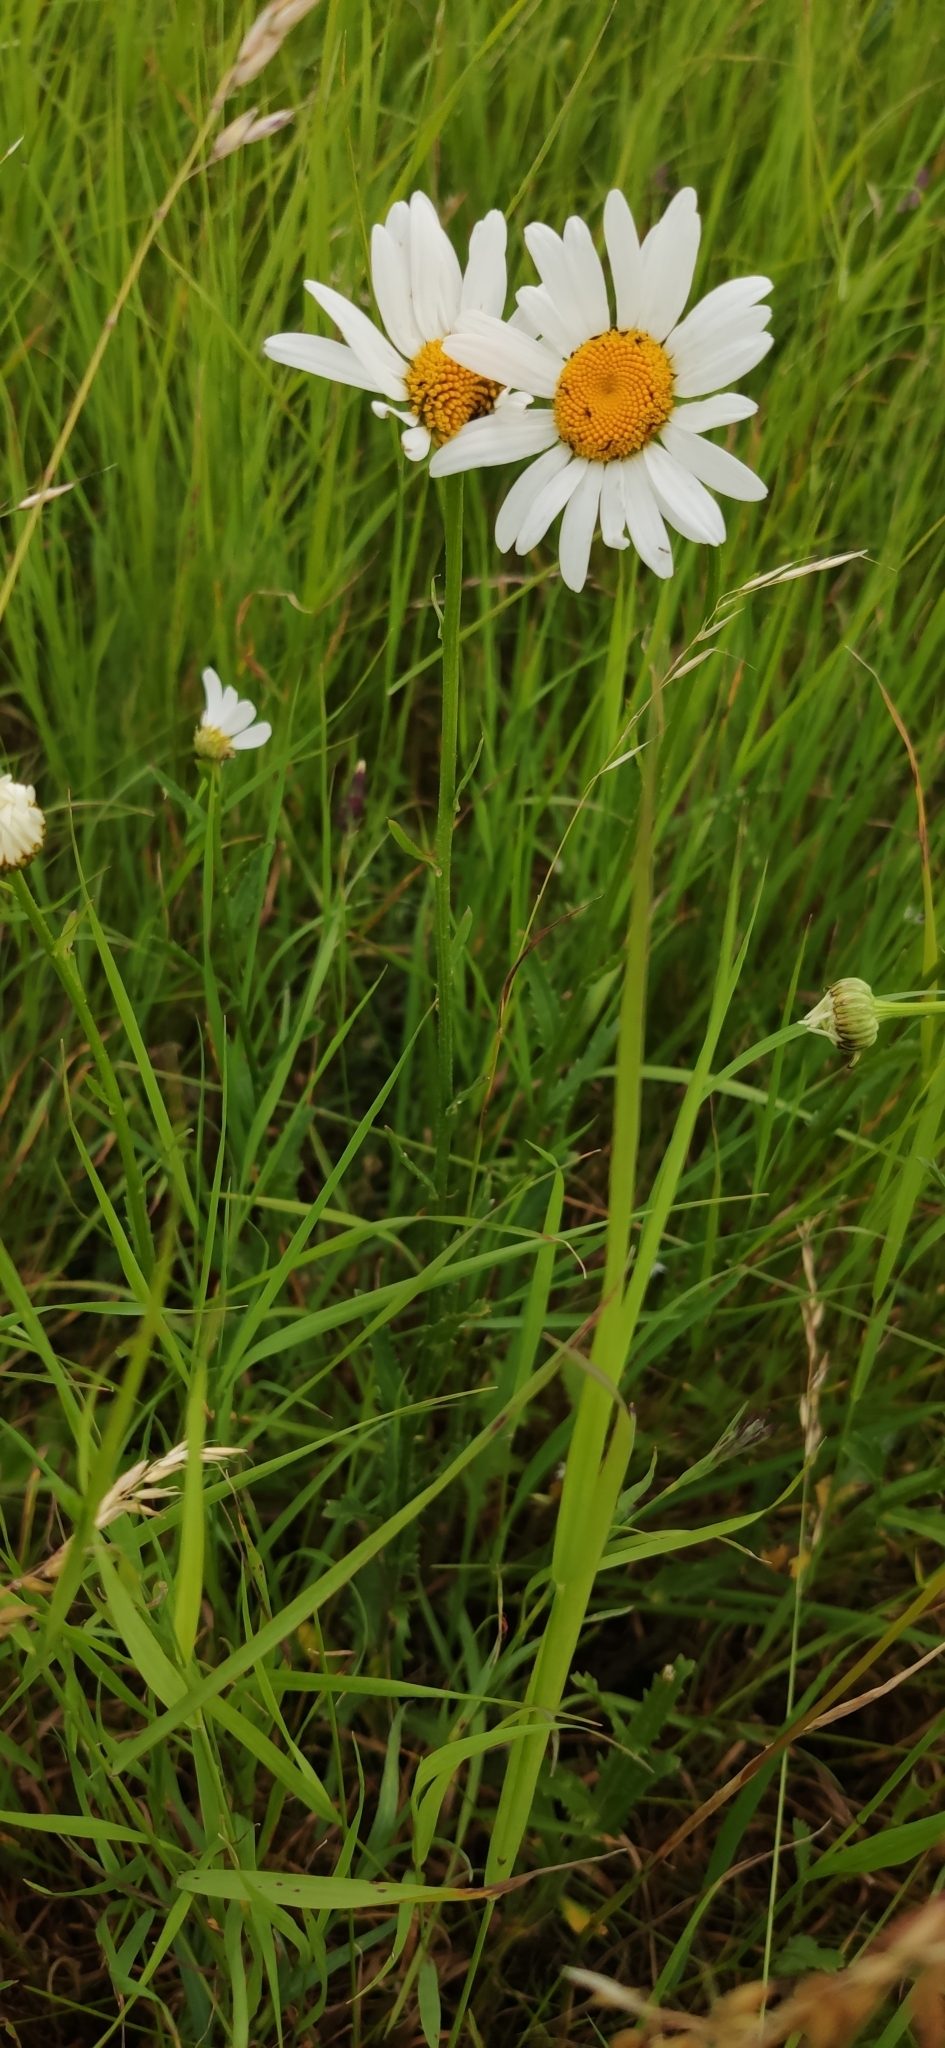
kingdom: Plantae
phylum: Tracheophyta
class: Magnoliopsida
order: Asterales
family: Asteraceae
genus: Leucanthemum
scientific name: Leucanthemum vulgare
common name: Oxeye daisy
